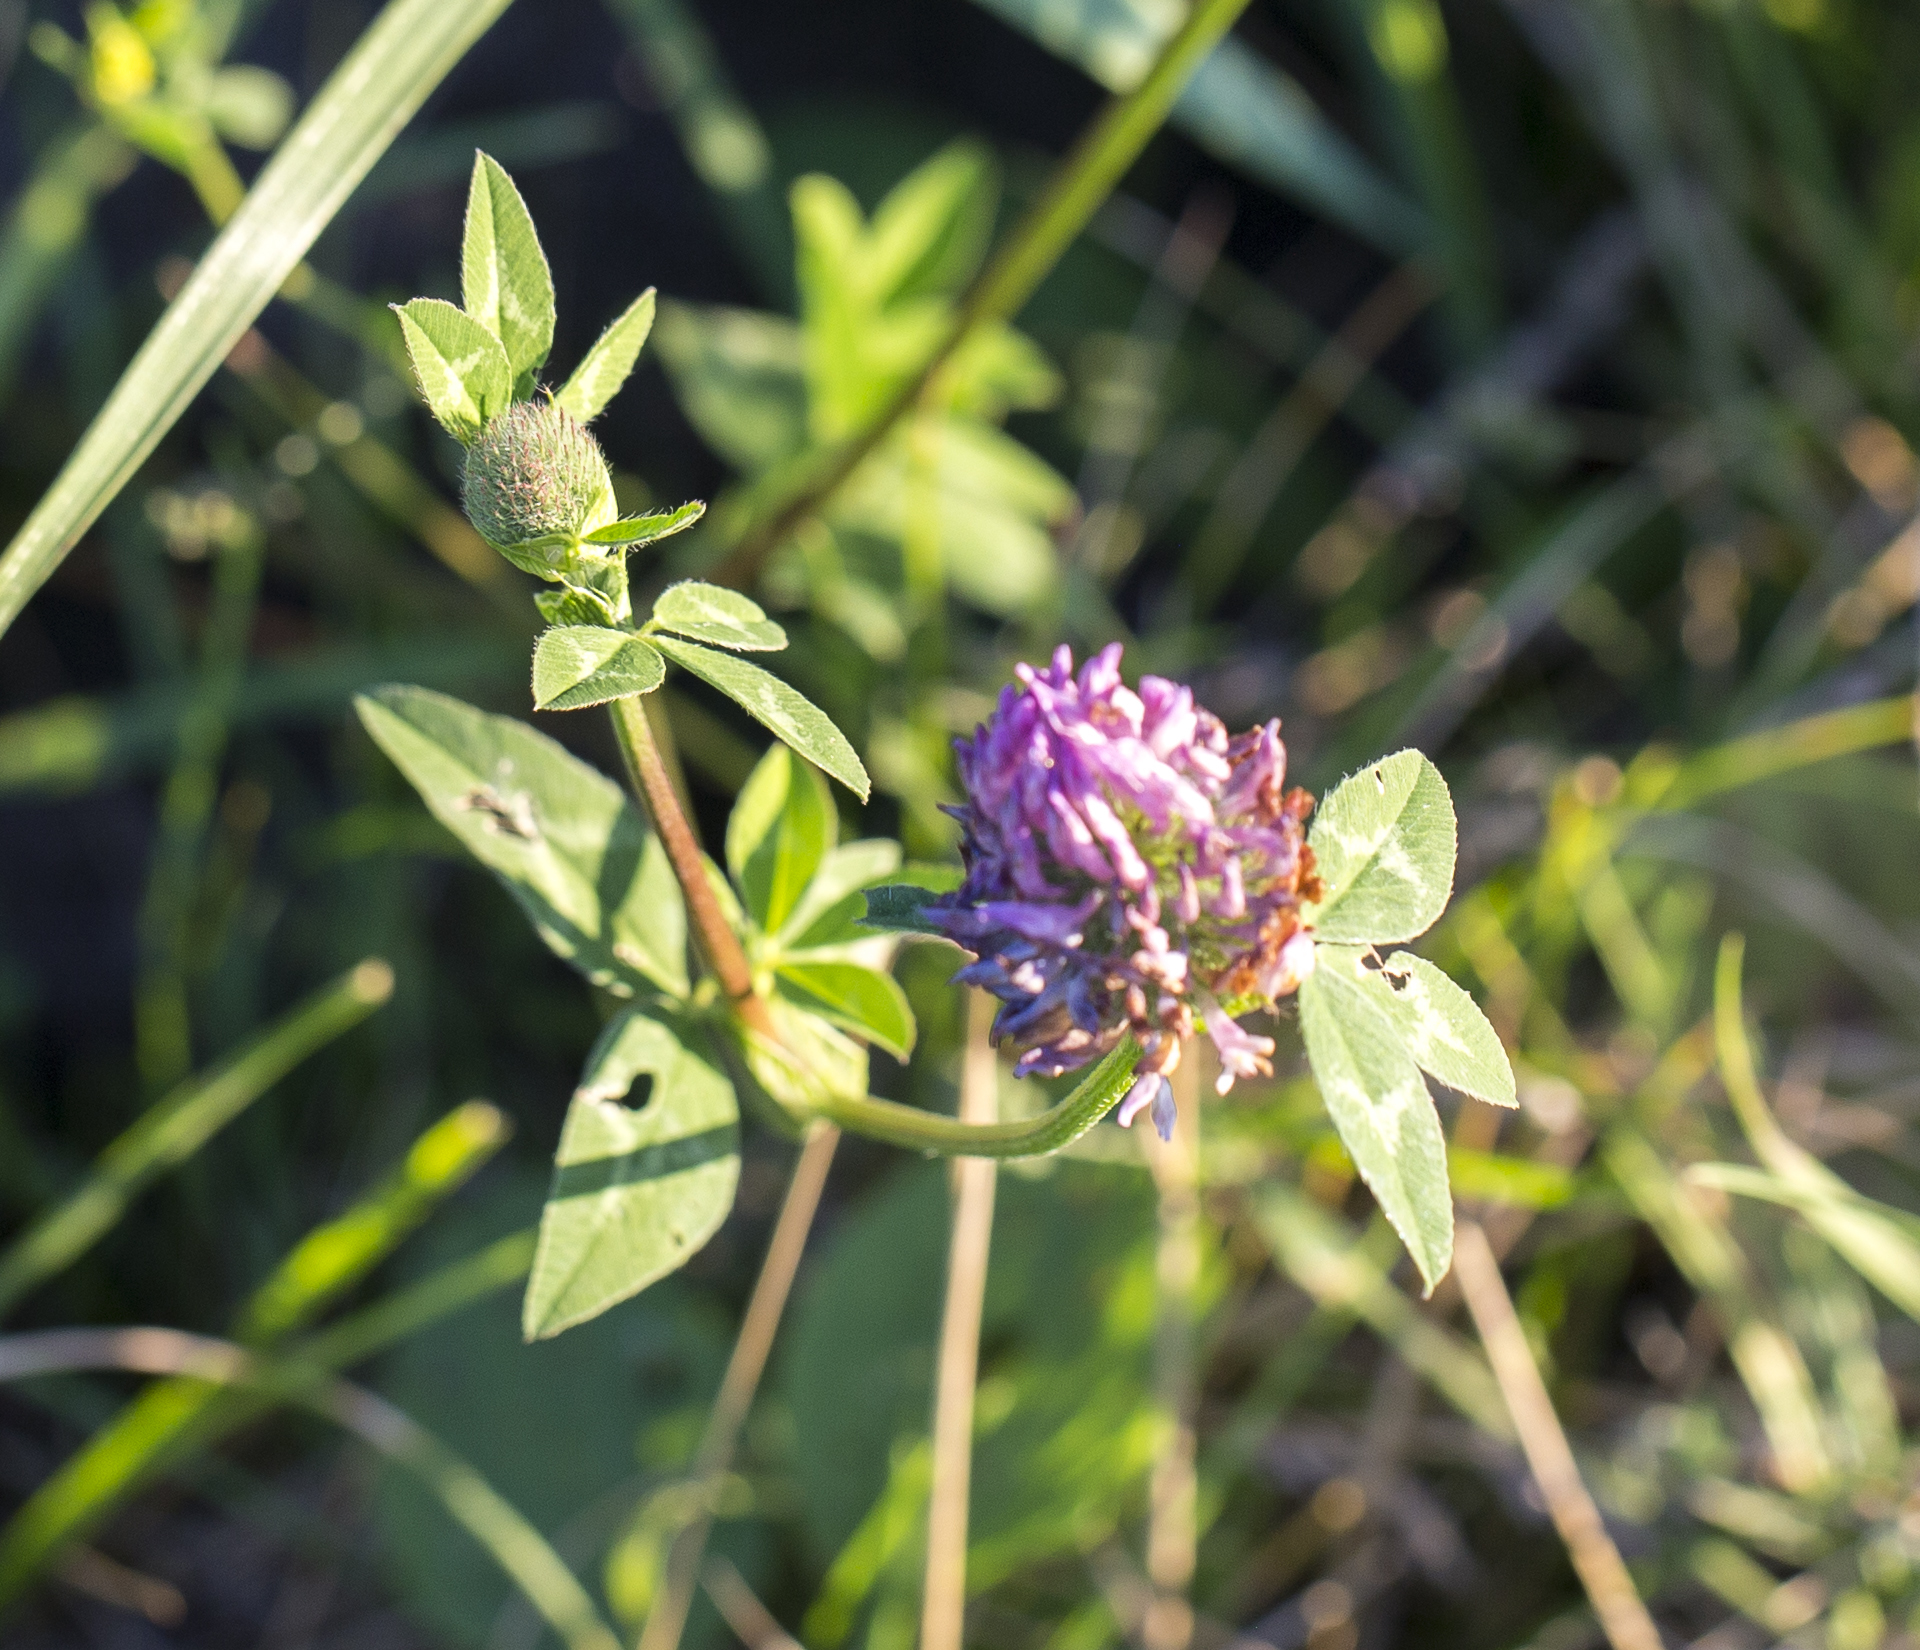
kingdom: Plantae
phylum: Tracheophyta
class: Magnoliopsida
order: Fabales
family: Fabaceae
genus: Trifolium
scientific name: Trifolium pratense
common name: Red clover
